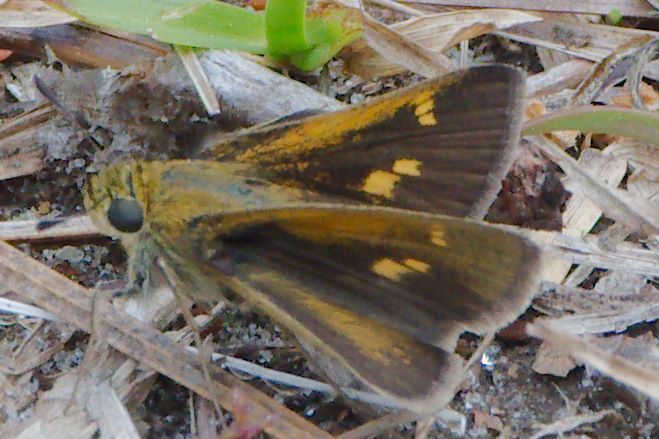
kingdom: Animalia
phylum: Arthropoda
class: Insecta
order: Lepidoptera
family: Hesperiidae
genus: Polites
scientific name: Polites themistocles
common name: Tawny-edged skipper
